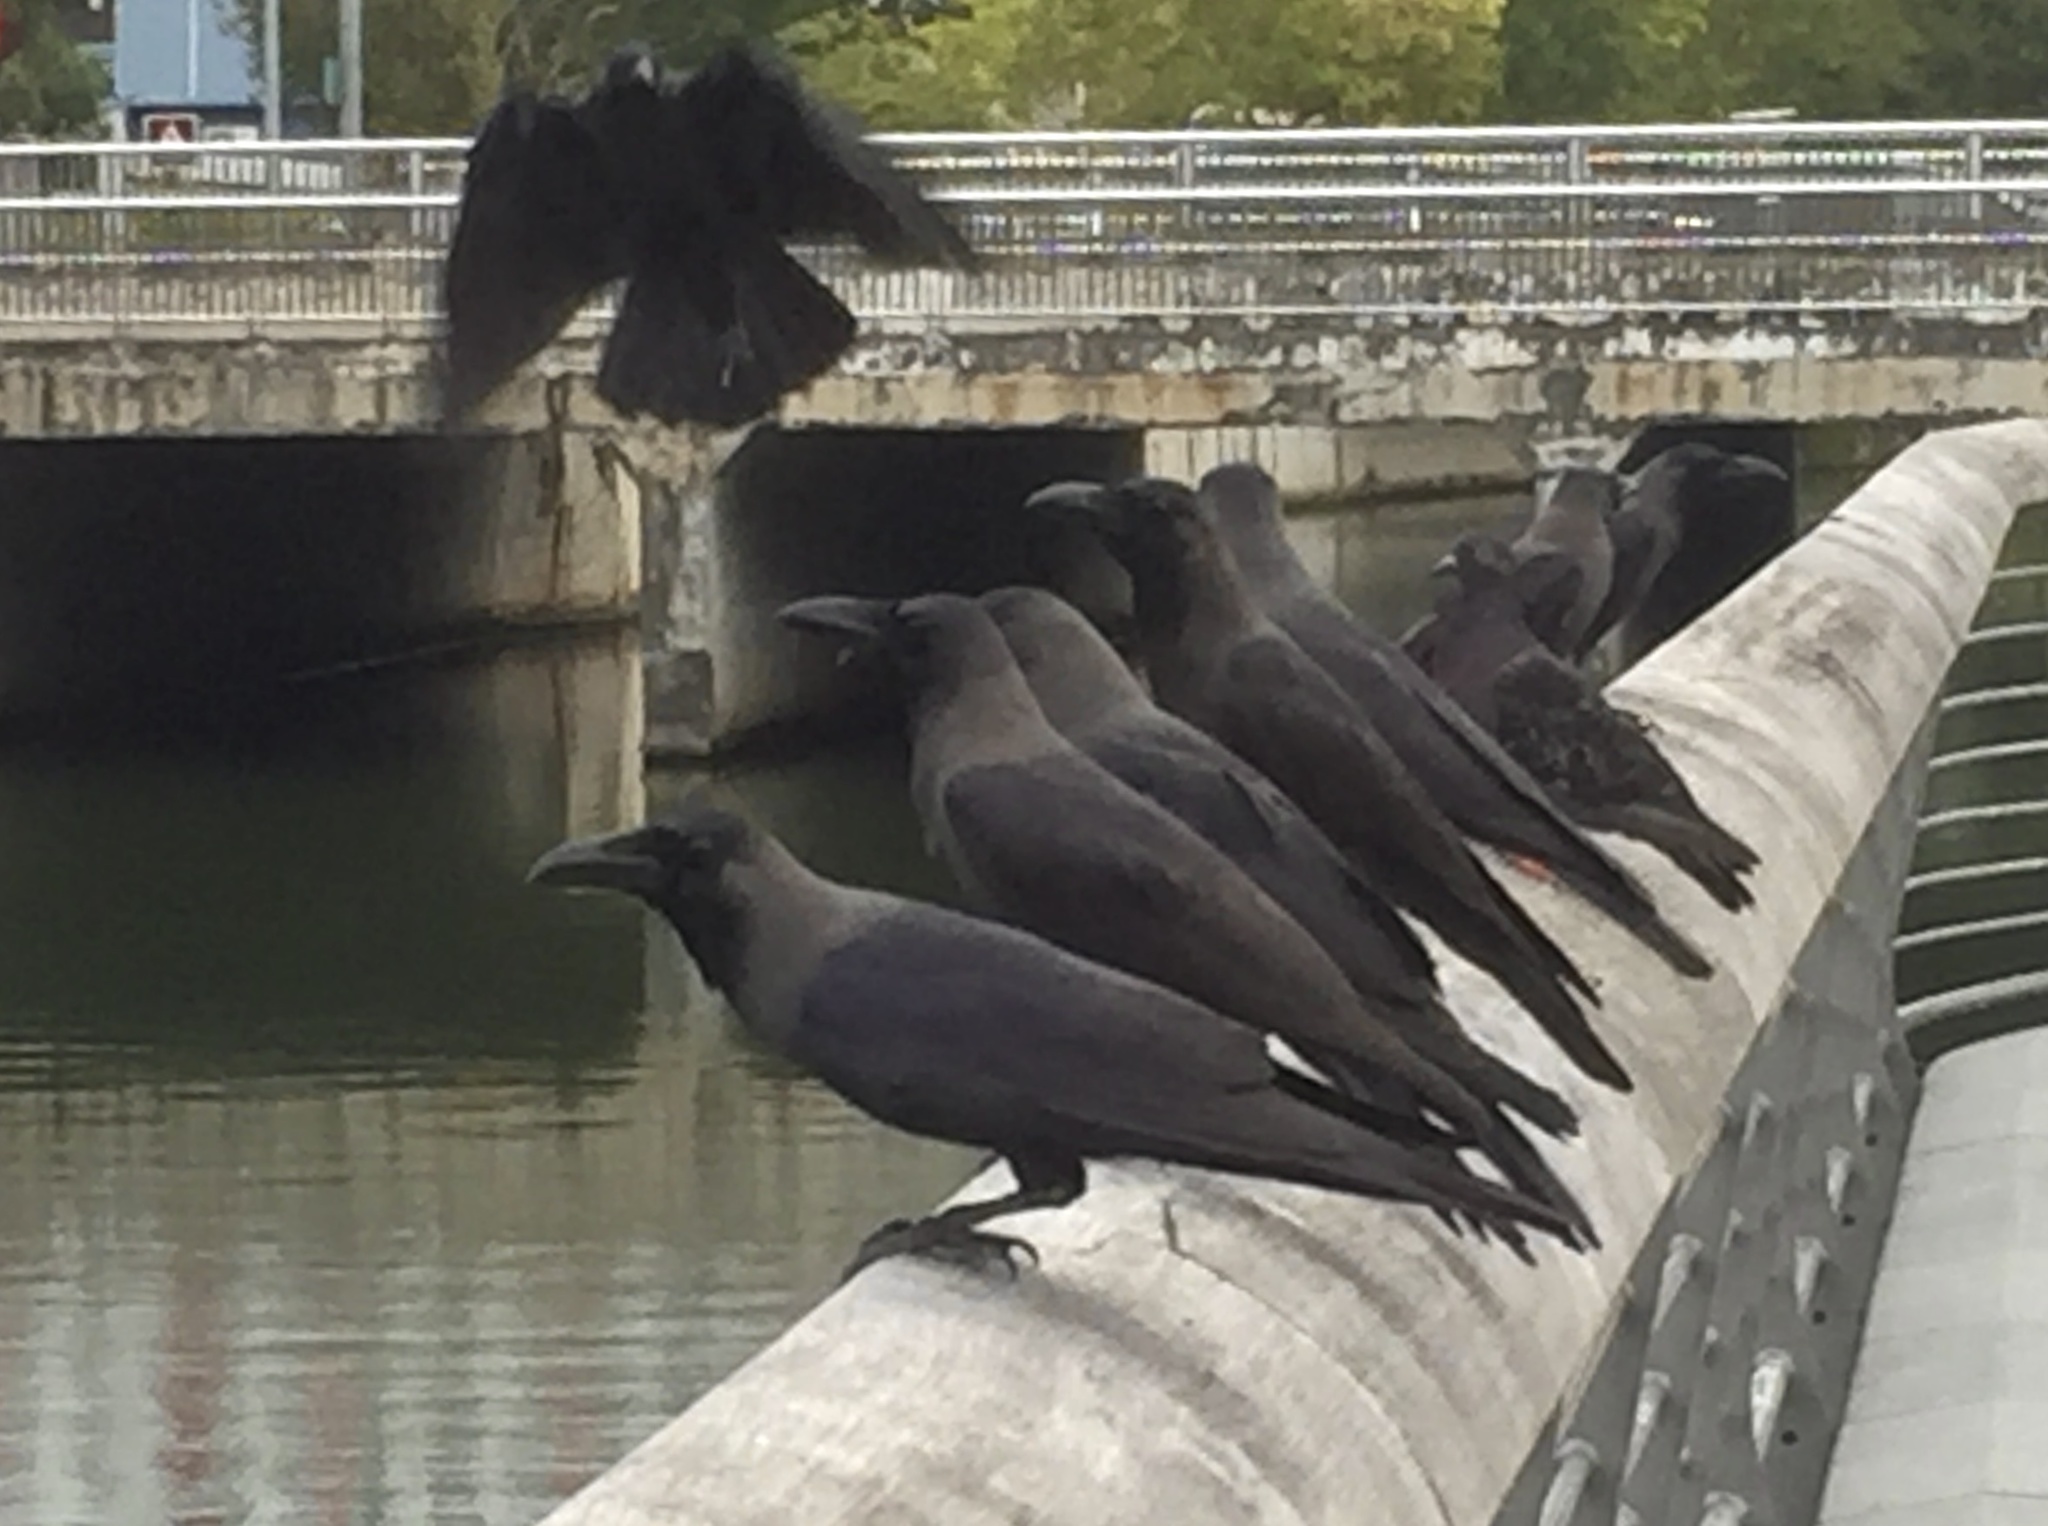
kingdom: Animalia
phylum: Chordata
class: Aves
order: Passeriformes
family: Corvidae
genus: Corvus
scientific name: Corvus splendens
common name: House crow
